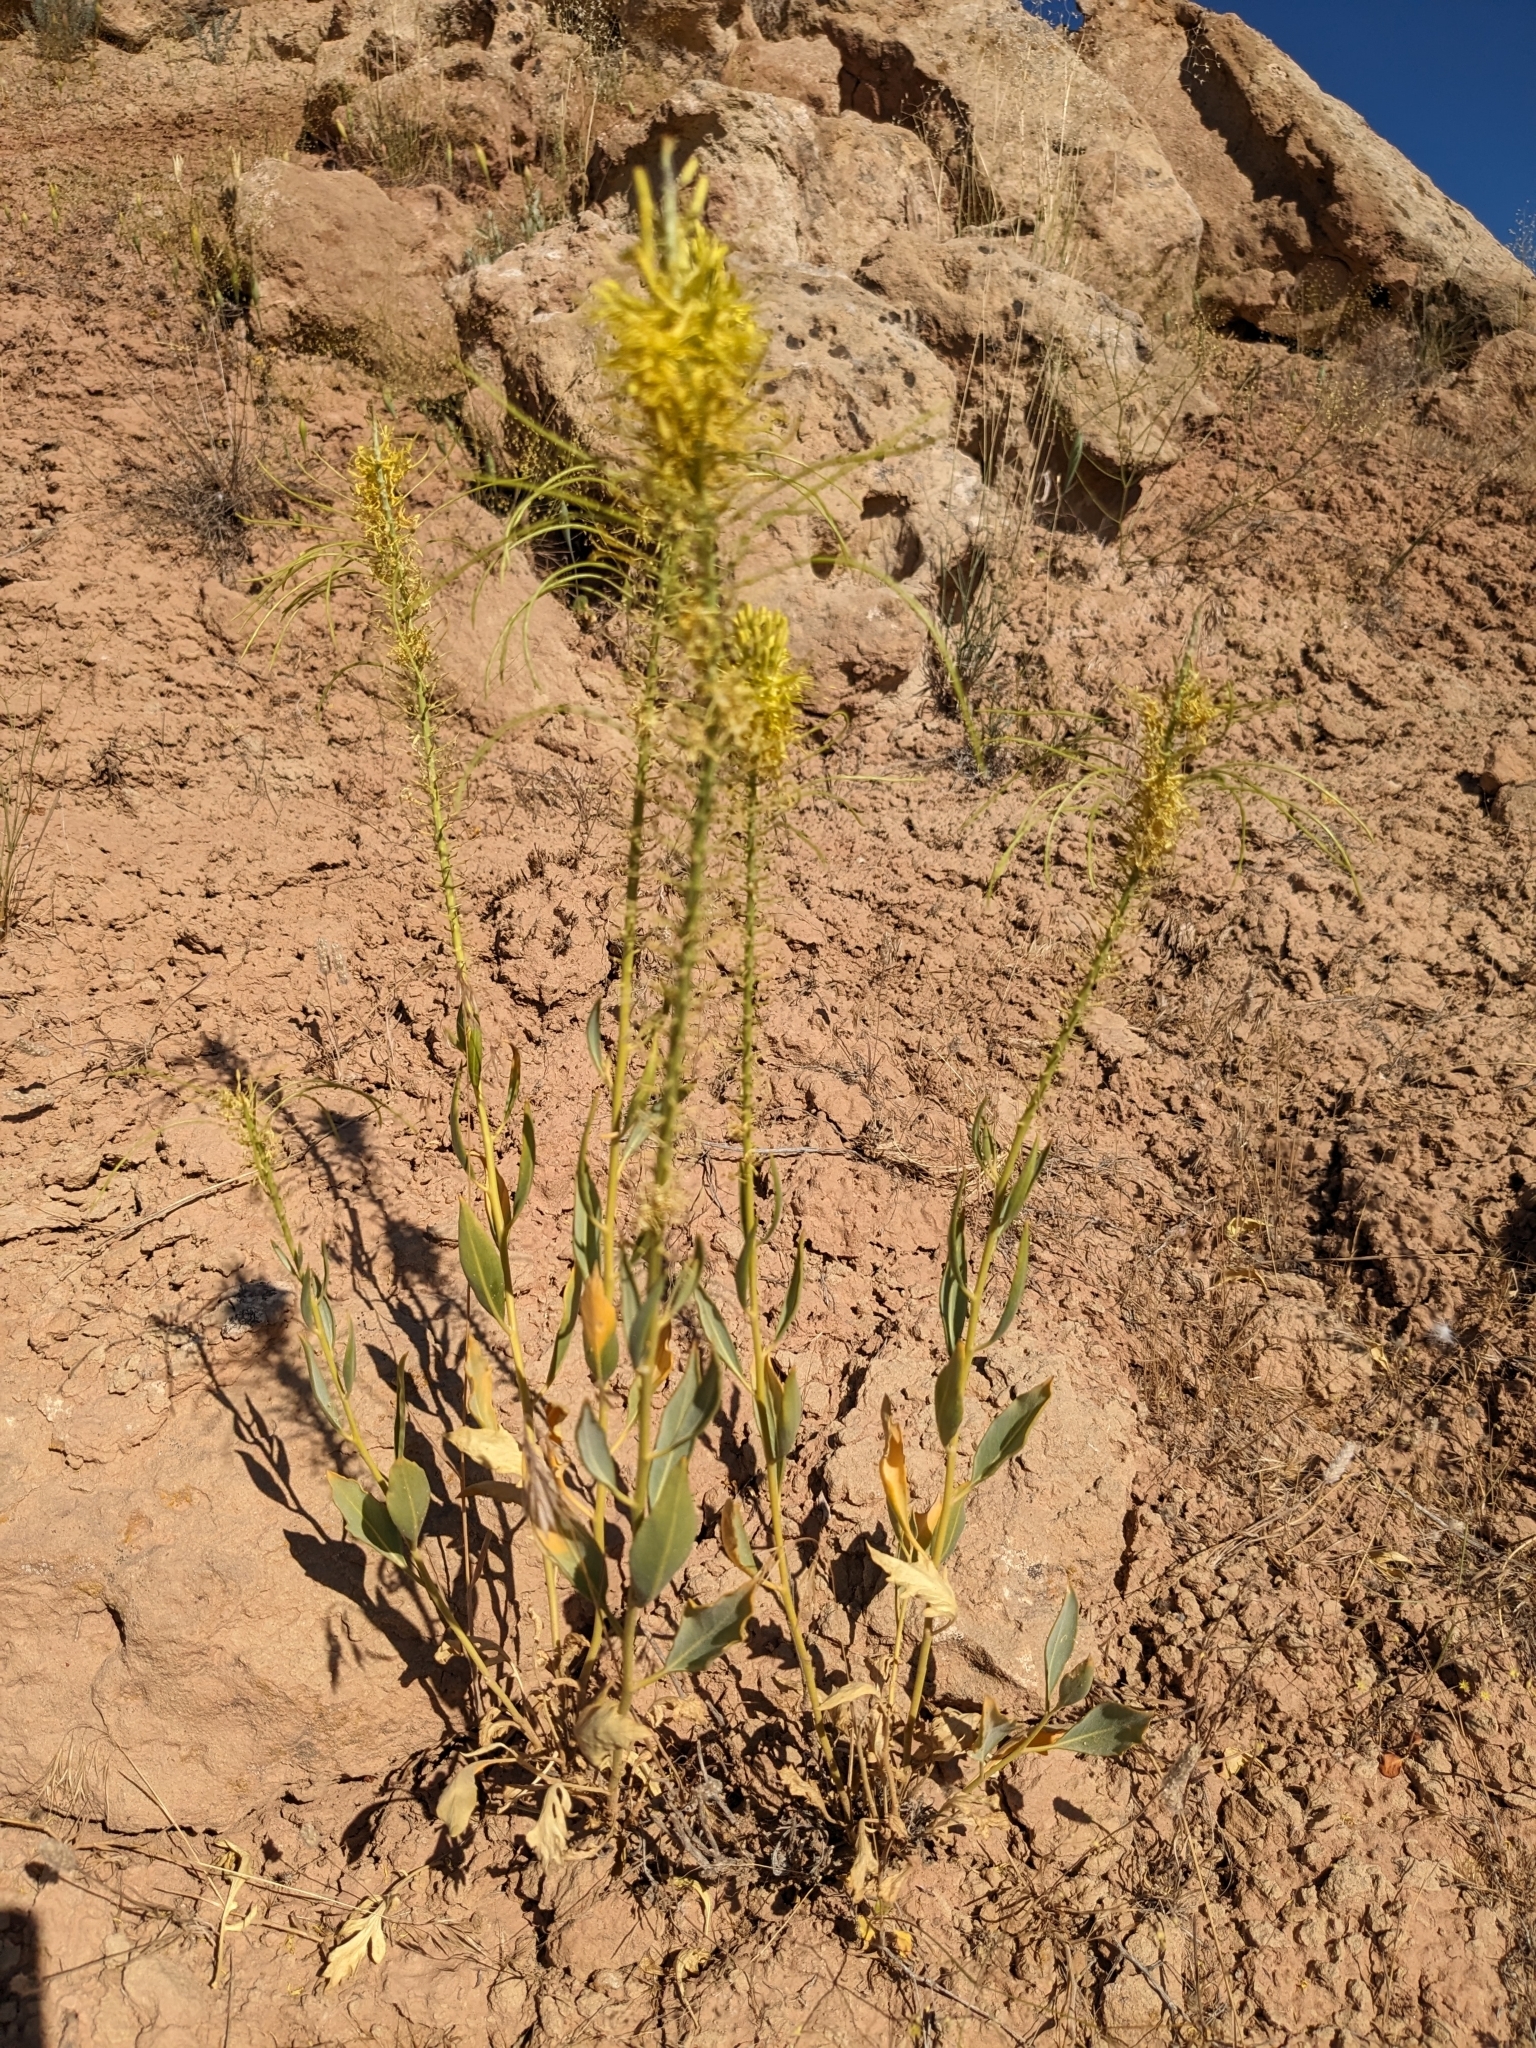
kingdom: Plantae
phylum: Tracheophyta
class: Magnoliopsida
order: Brassicales
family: Brassicaceae
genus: Stanleya
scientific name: Stanleya pinnata
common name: Prince's-plume
